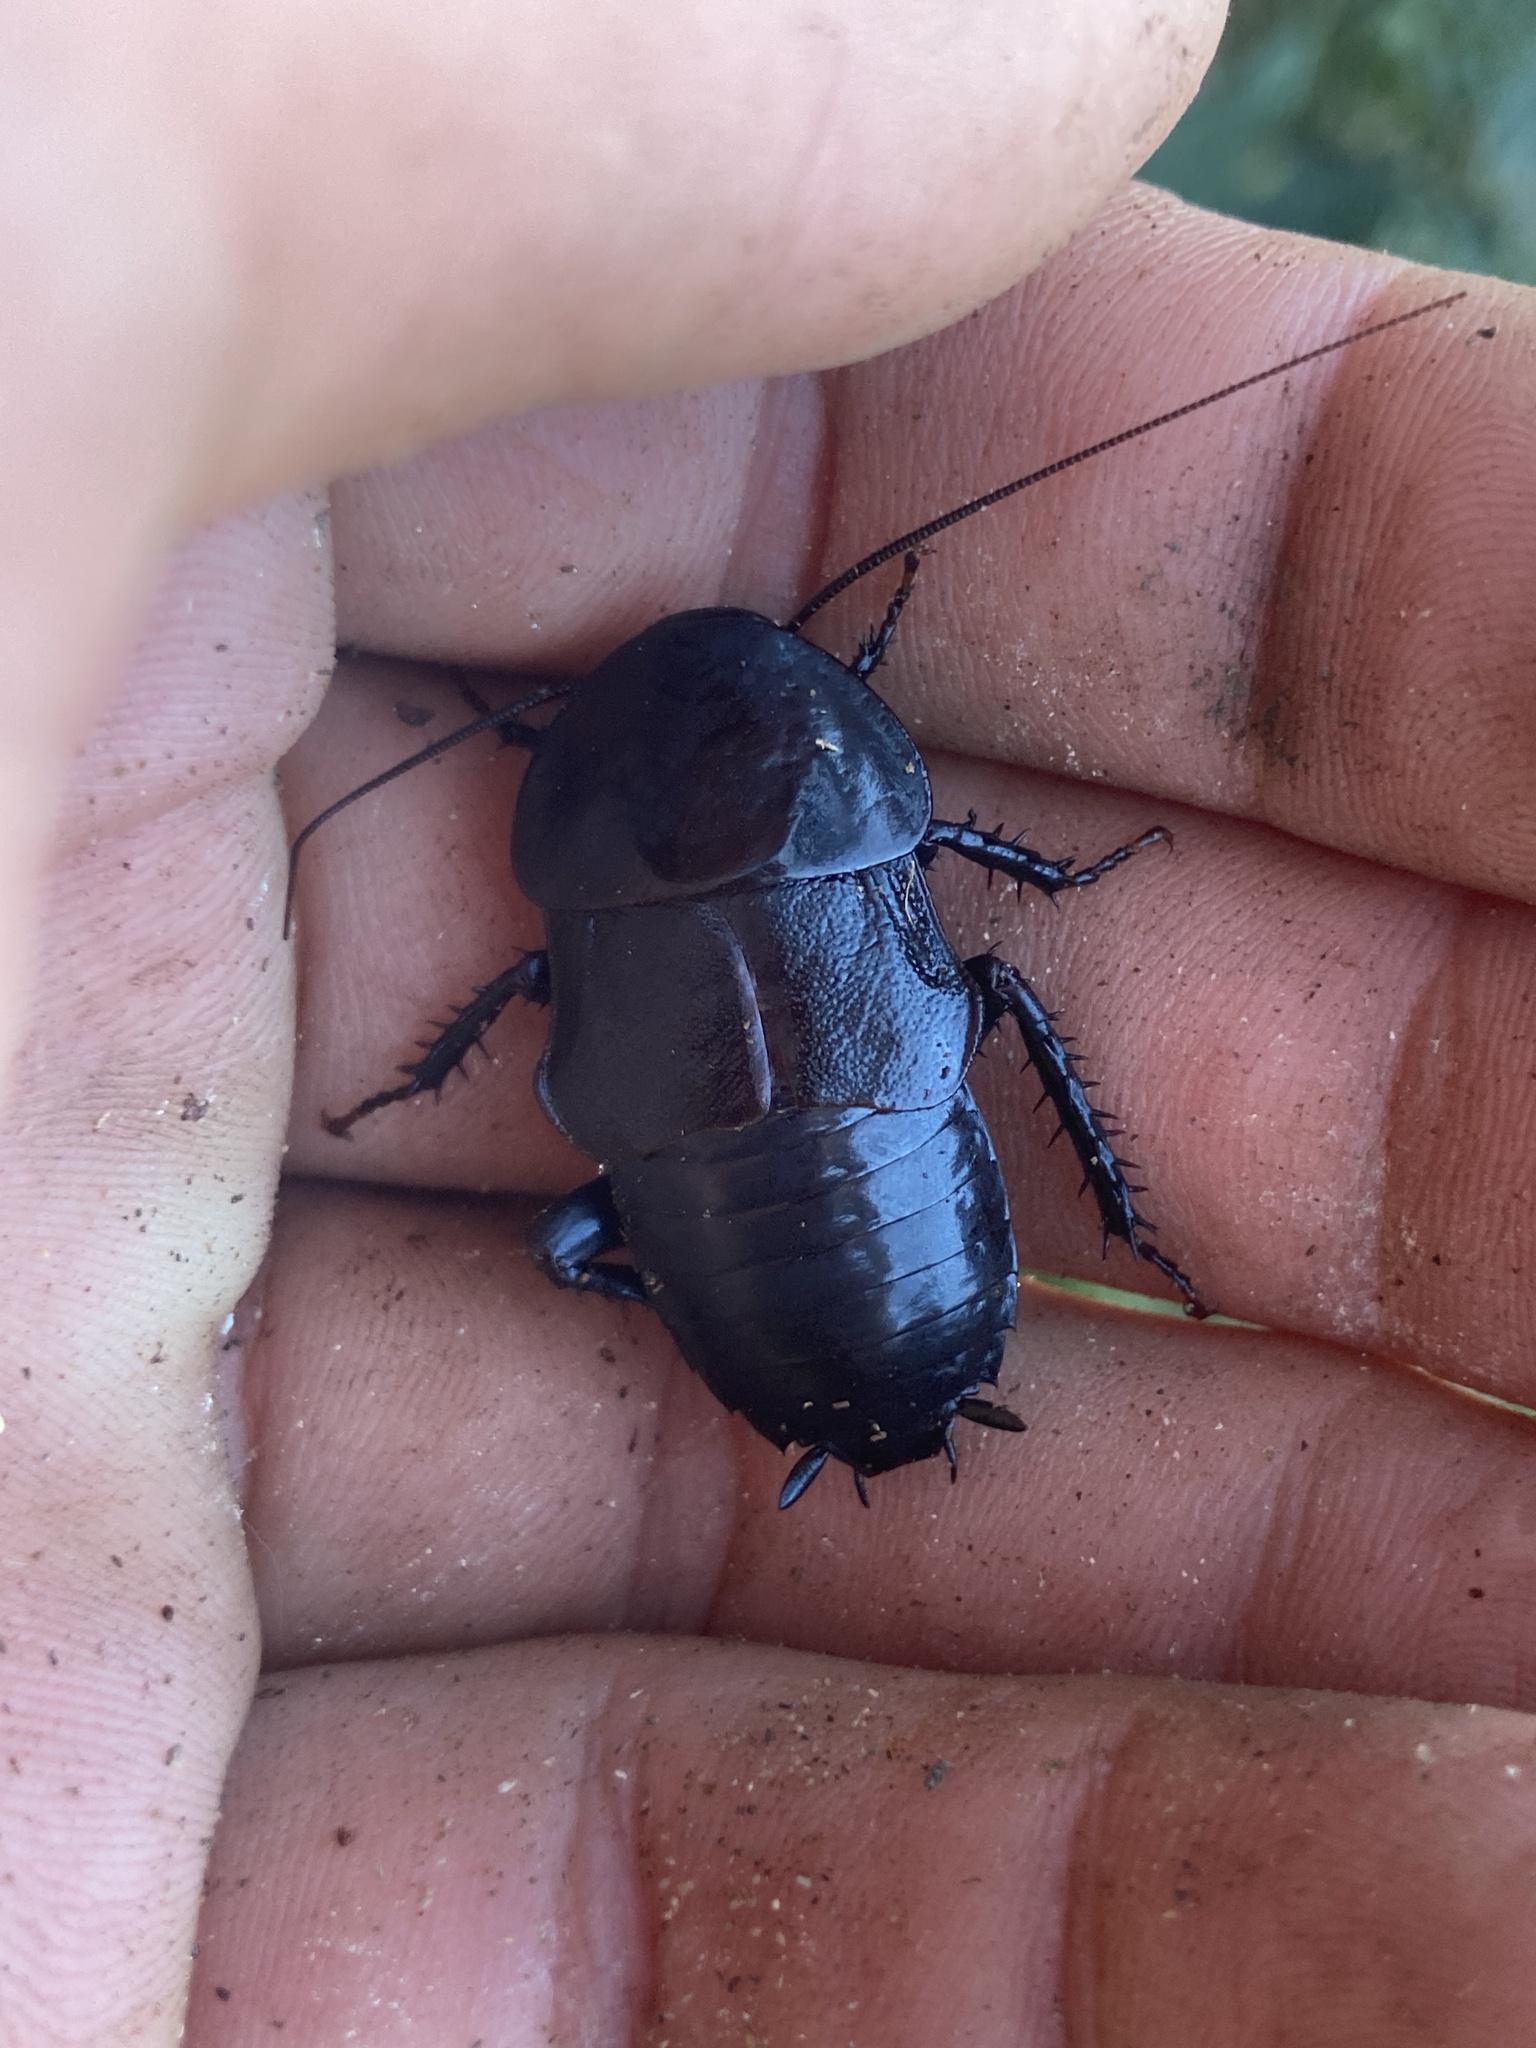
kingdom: Animalia
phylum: Arthropoda
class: Insecta
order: Blattodea
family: Blattidae
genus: Scabina
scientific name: Scabina antipoda
